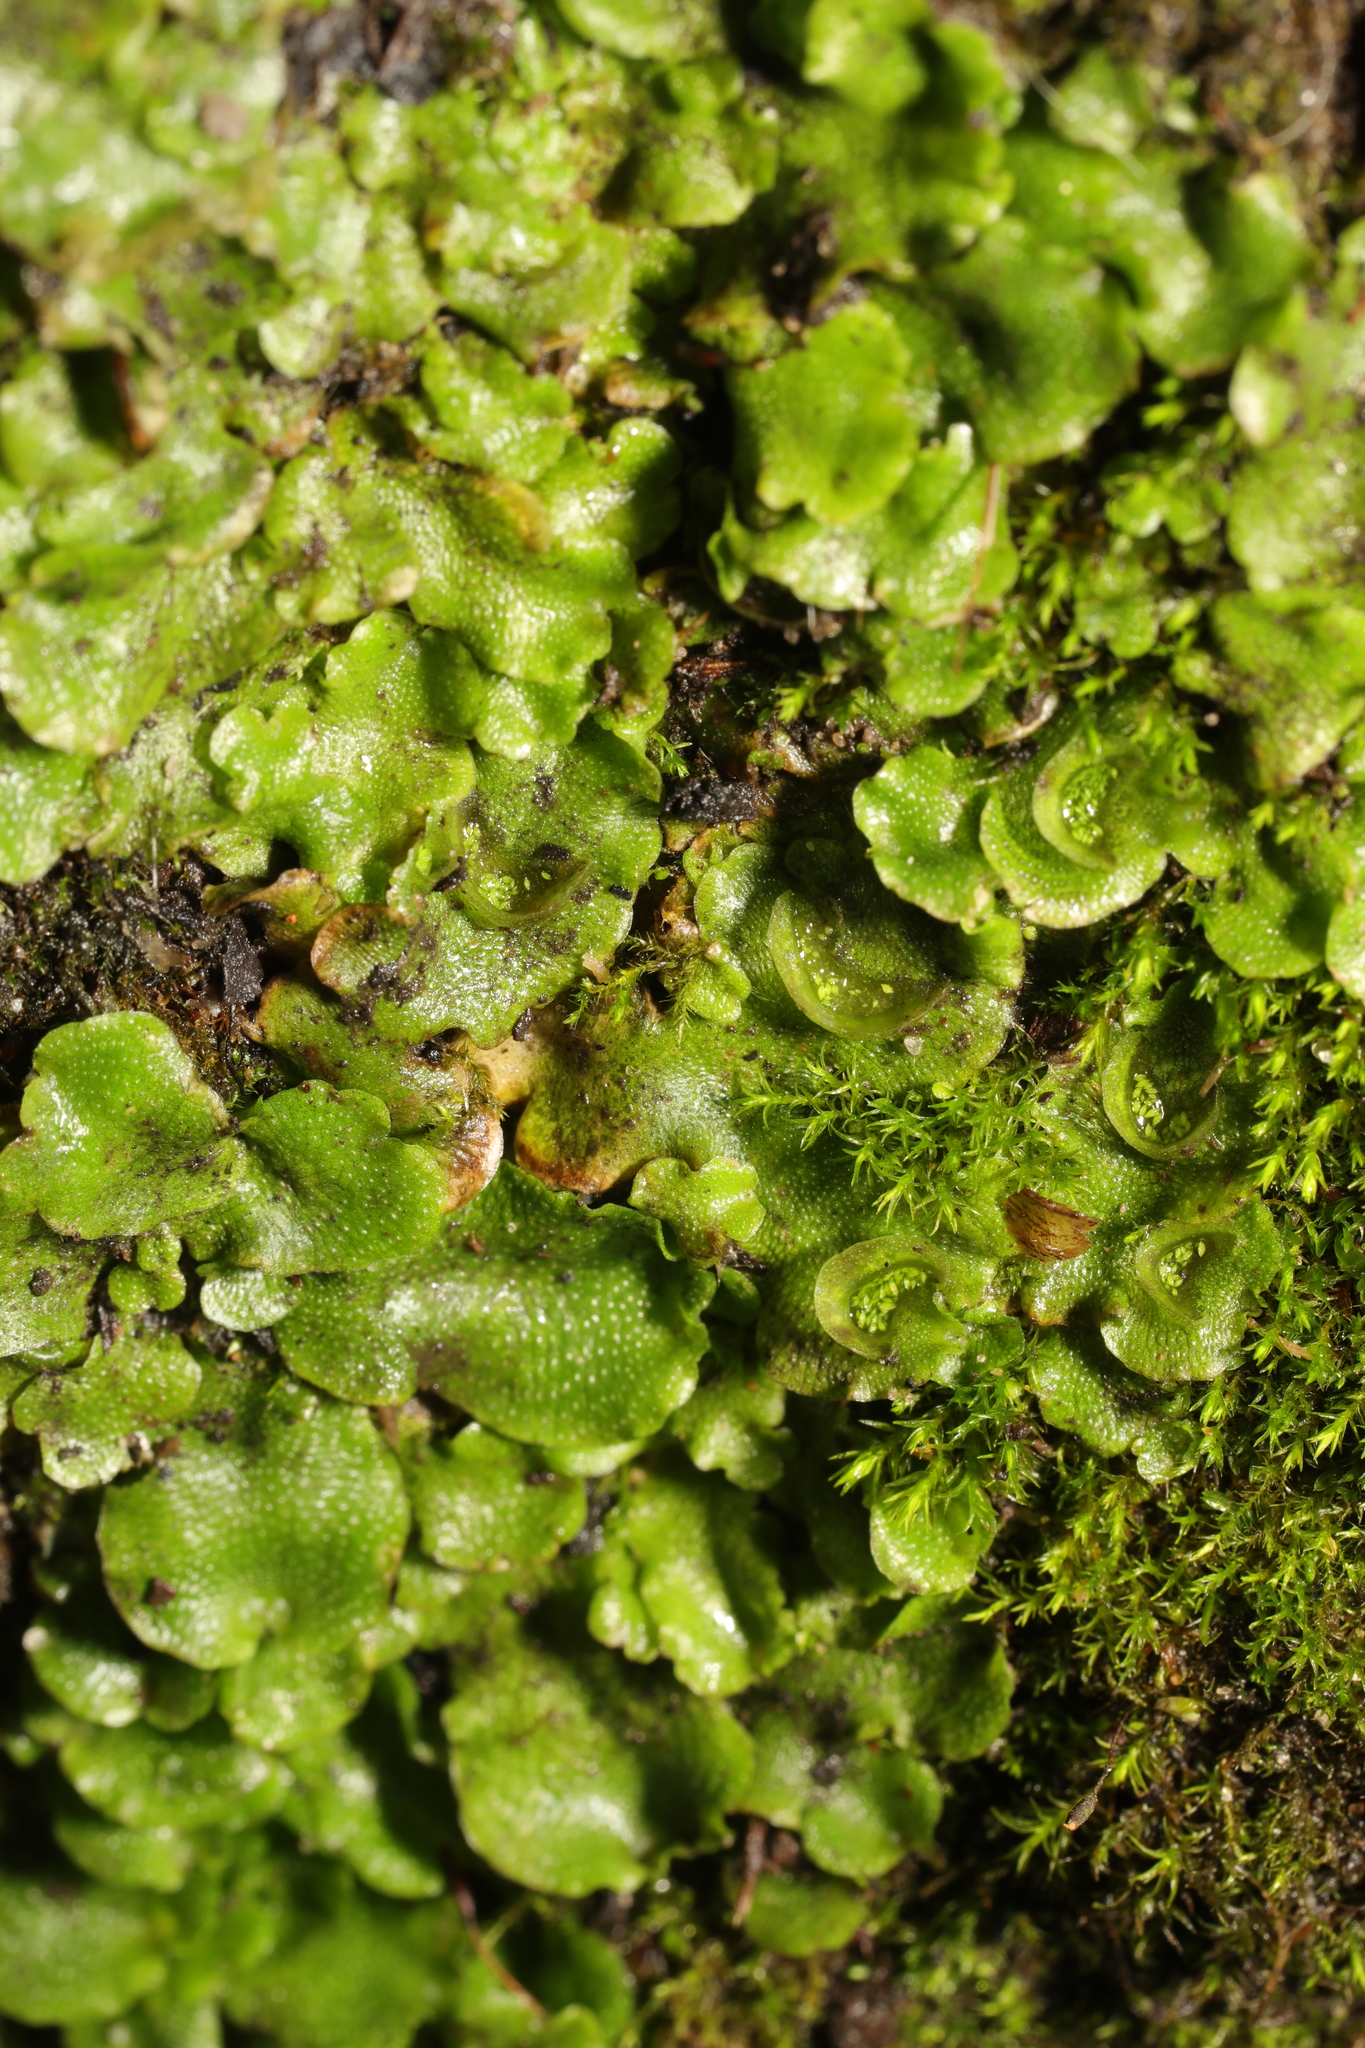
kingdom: Plantae
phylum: Marchantiophyta
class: Marchantiopsida
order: Lunulariales
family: Lunulariaceae
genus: Lunularia
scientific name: Lunularia cruciata
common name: Crescent-cup liverwort
